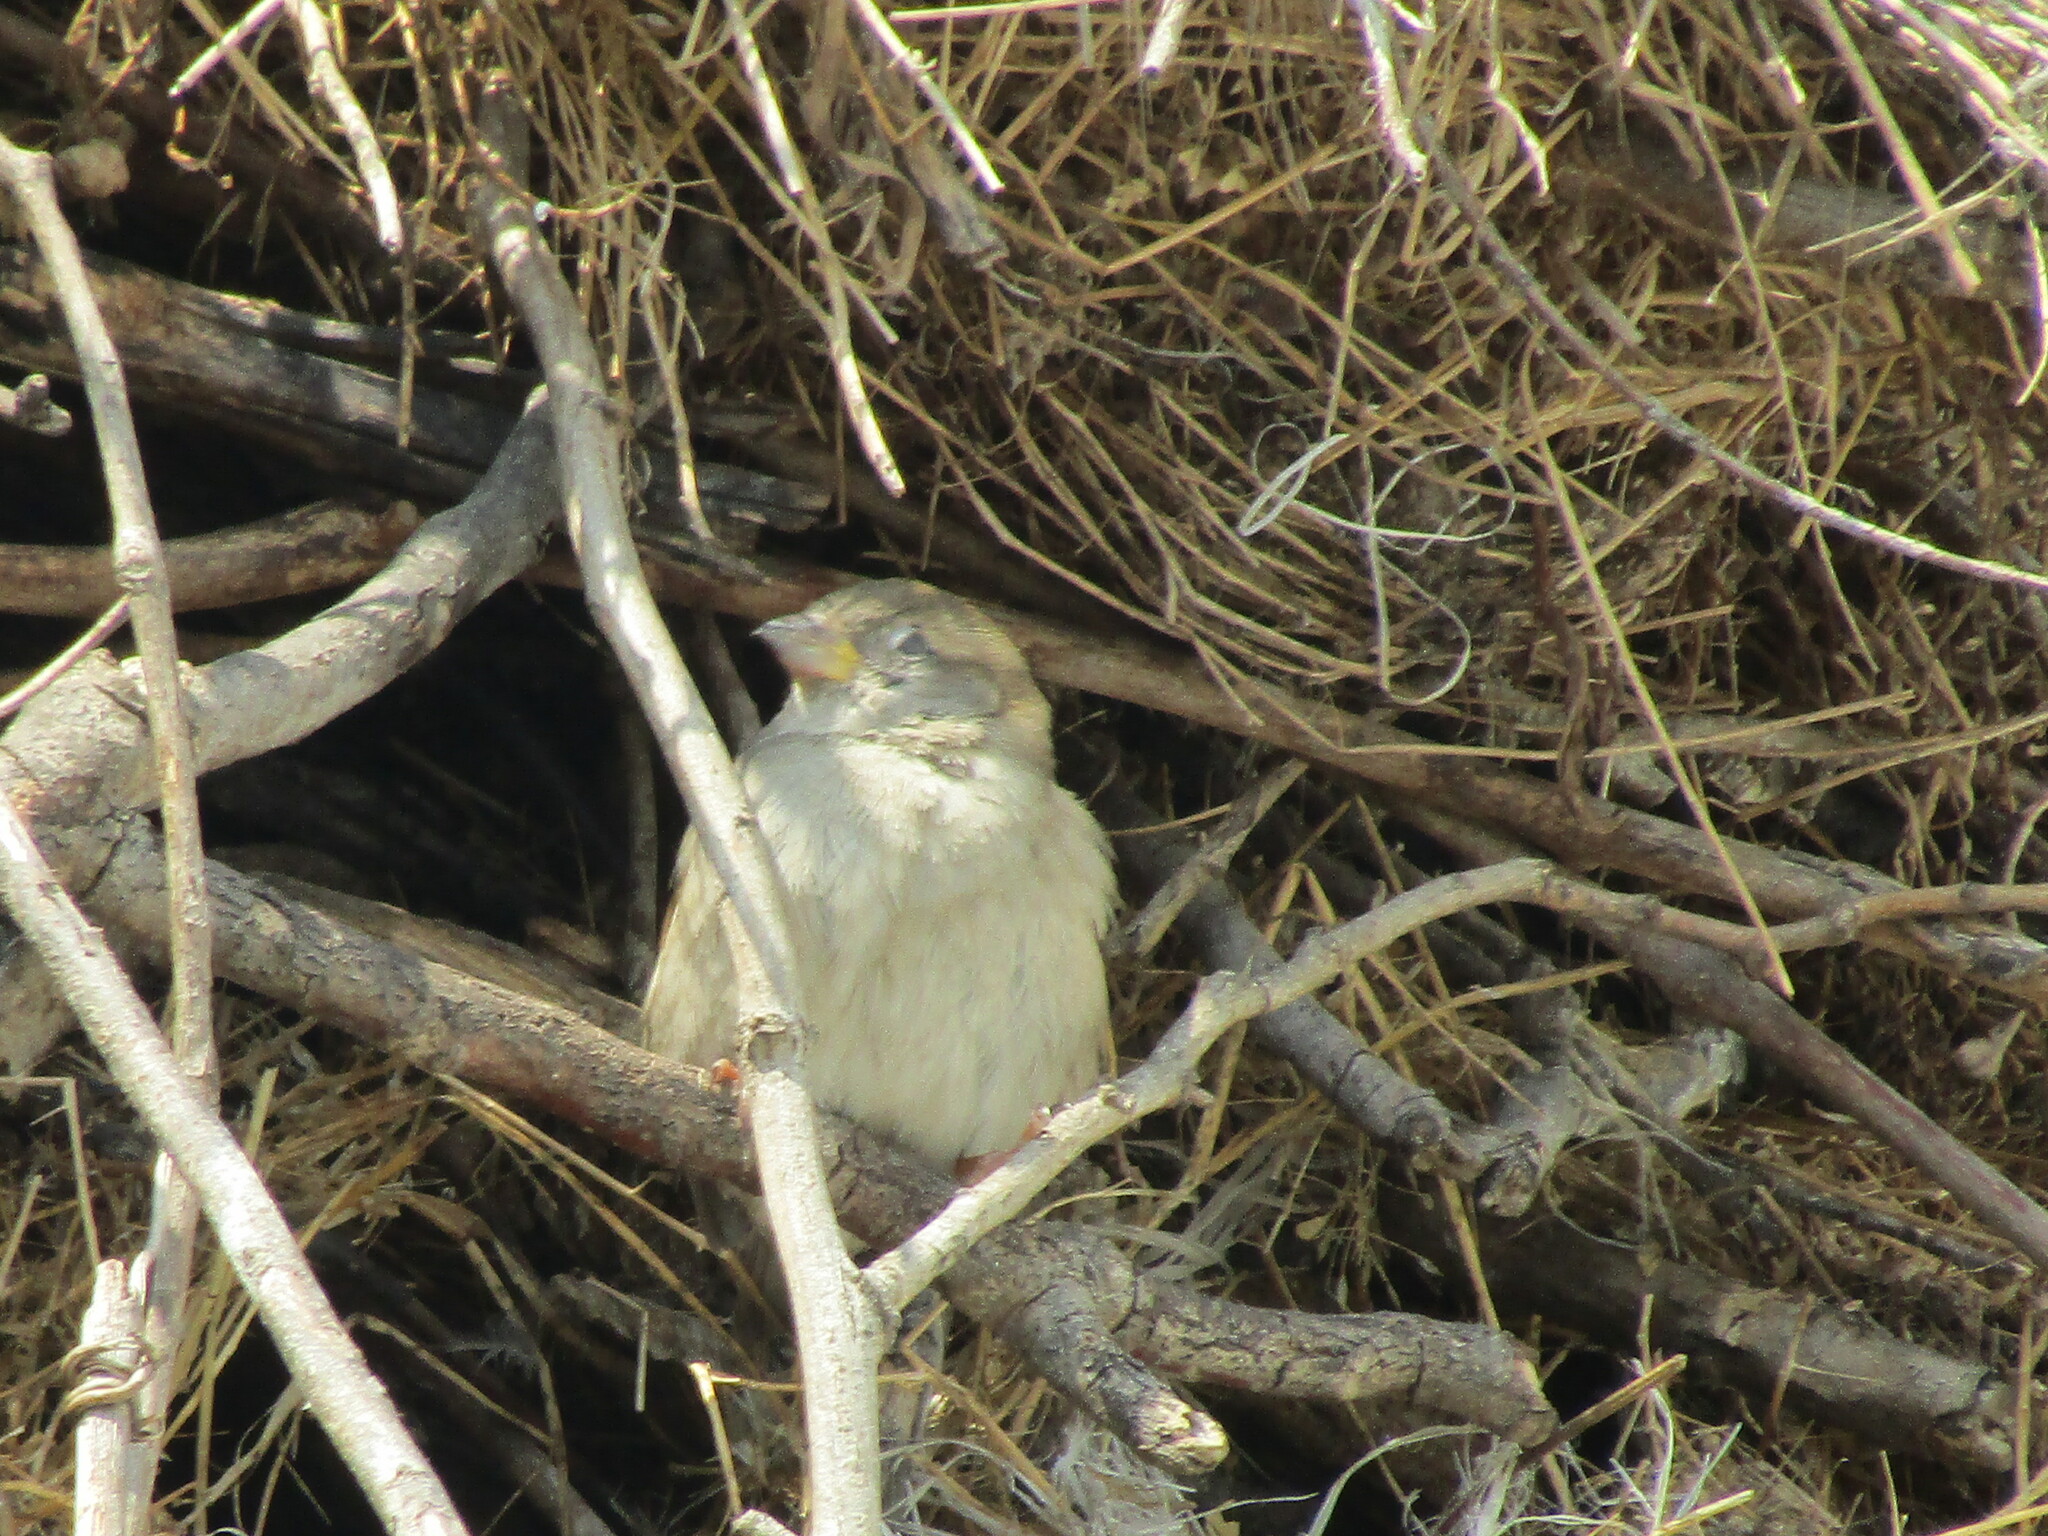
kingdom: Animalia
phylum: Chordata
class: Aves
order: Passeriformes
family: Passeridae
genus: Passer
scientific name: Passer domesticus
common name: House sparrow
